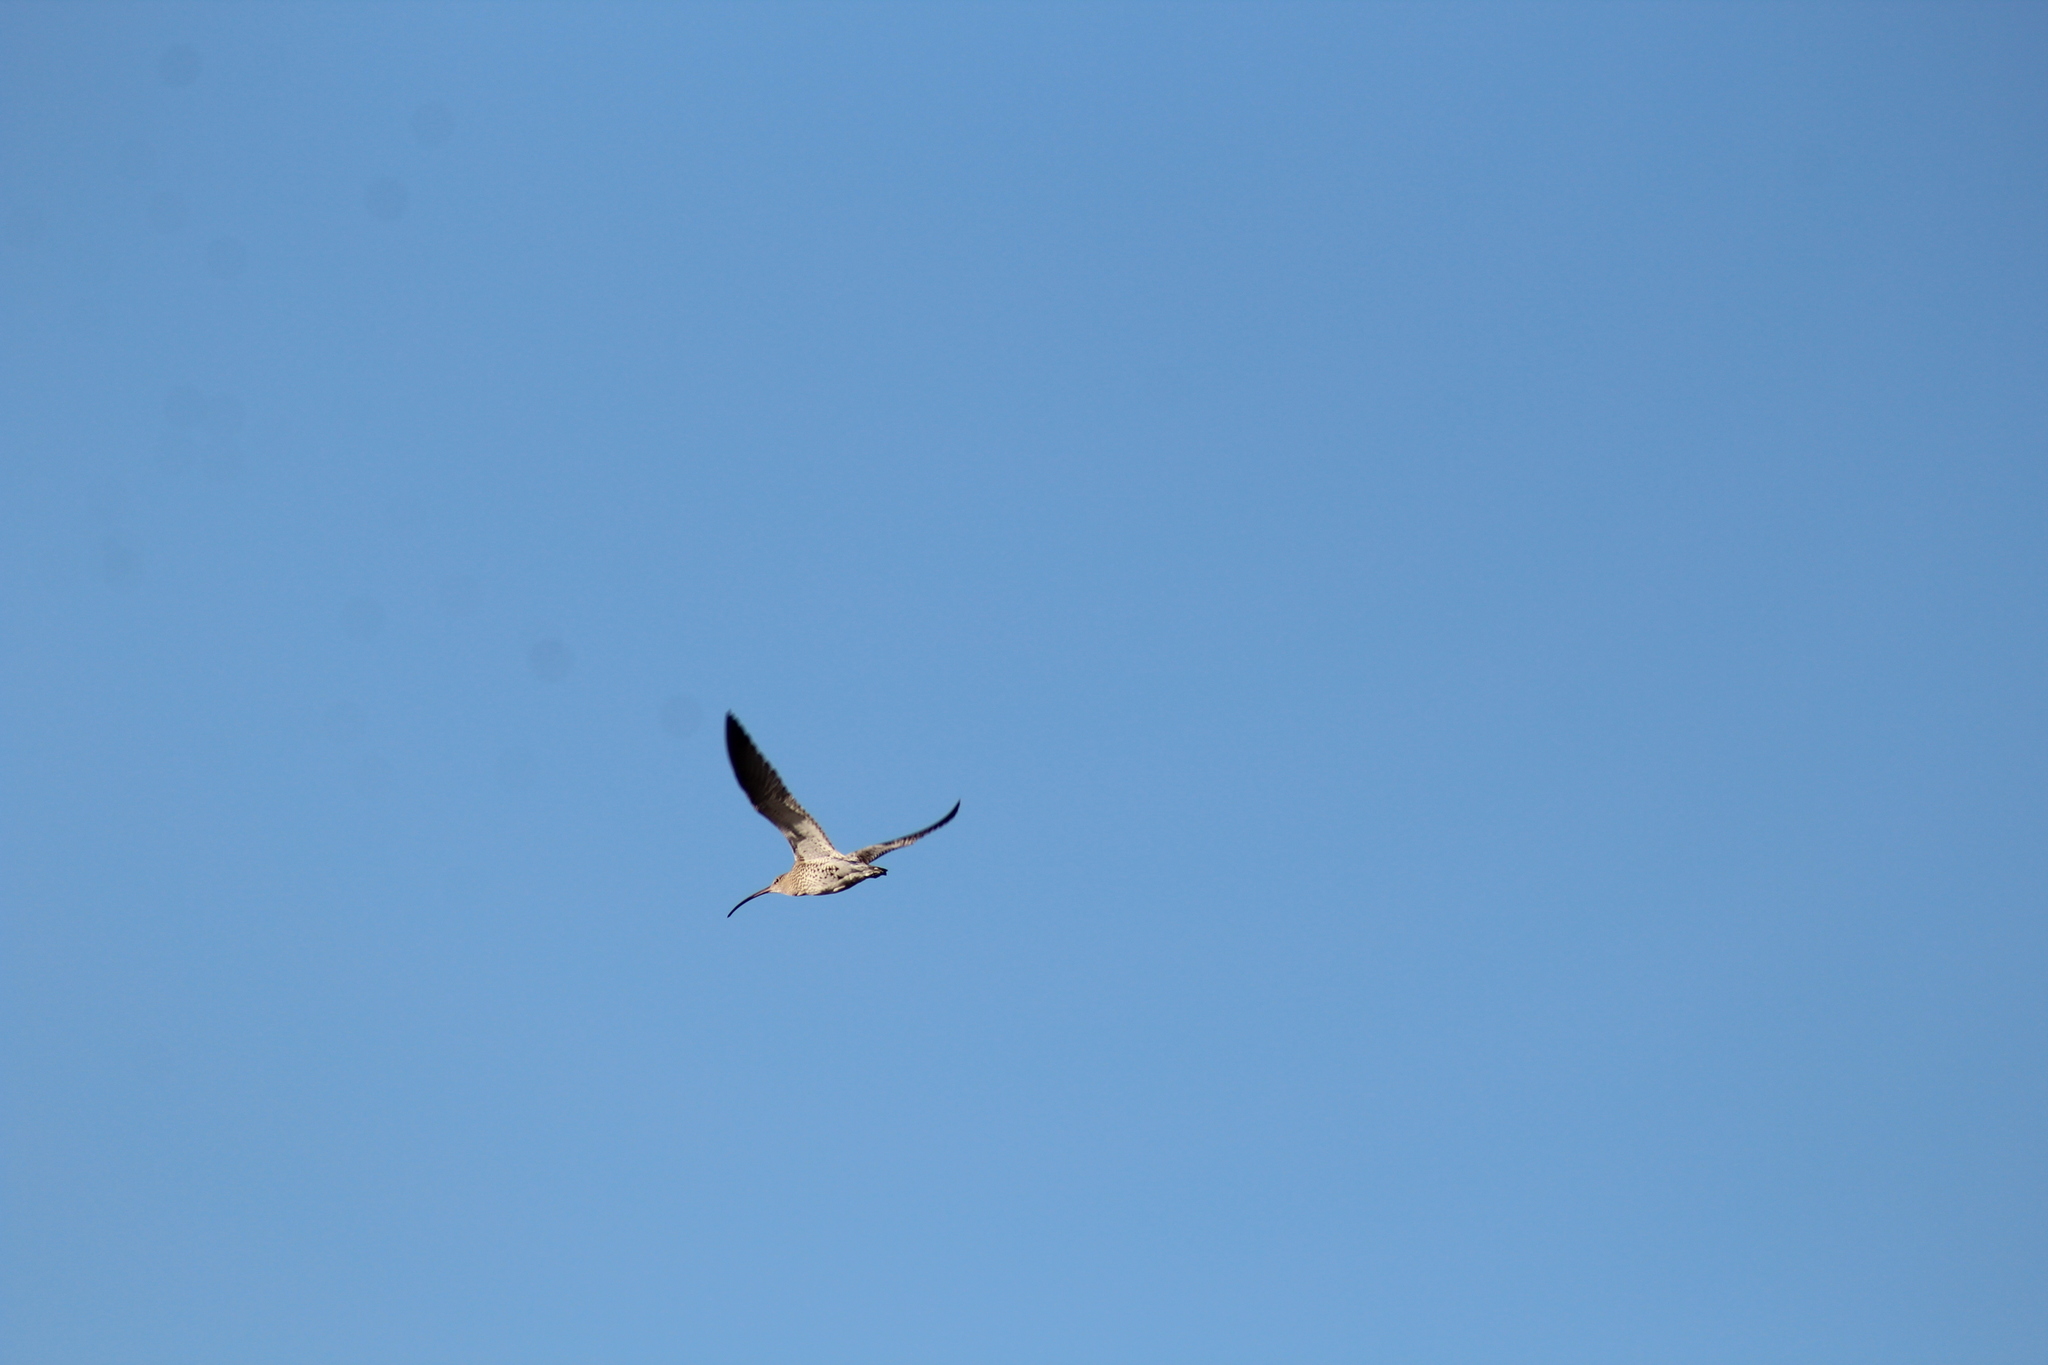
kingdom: Animalia
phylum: Chordata
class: Aves
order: Charadriiformes
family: Scolopacidae
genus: Numenius
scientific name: Numenius arquata
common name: Eurasian curlew
